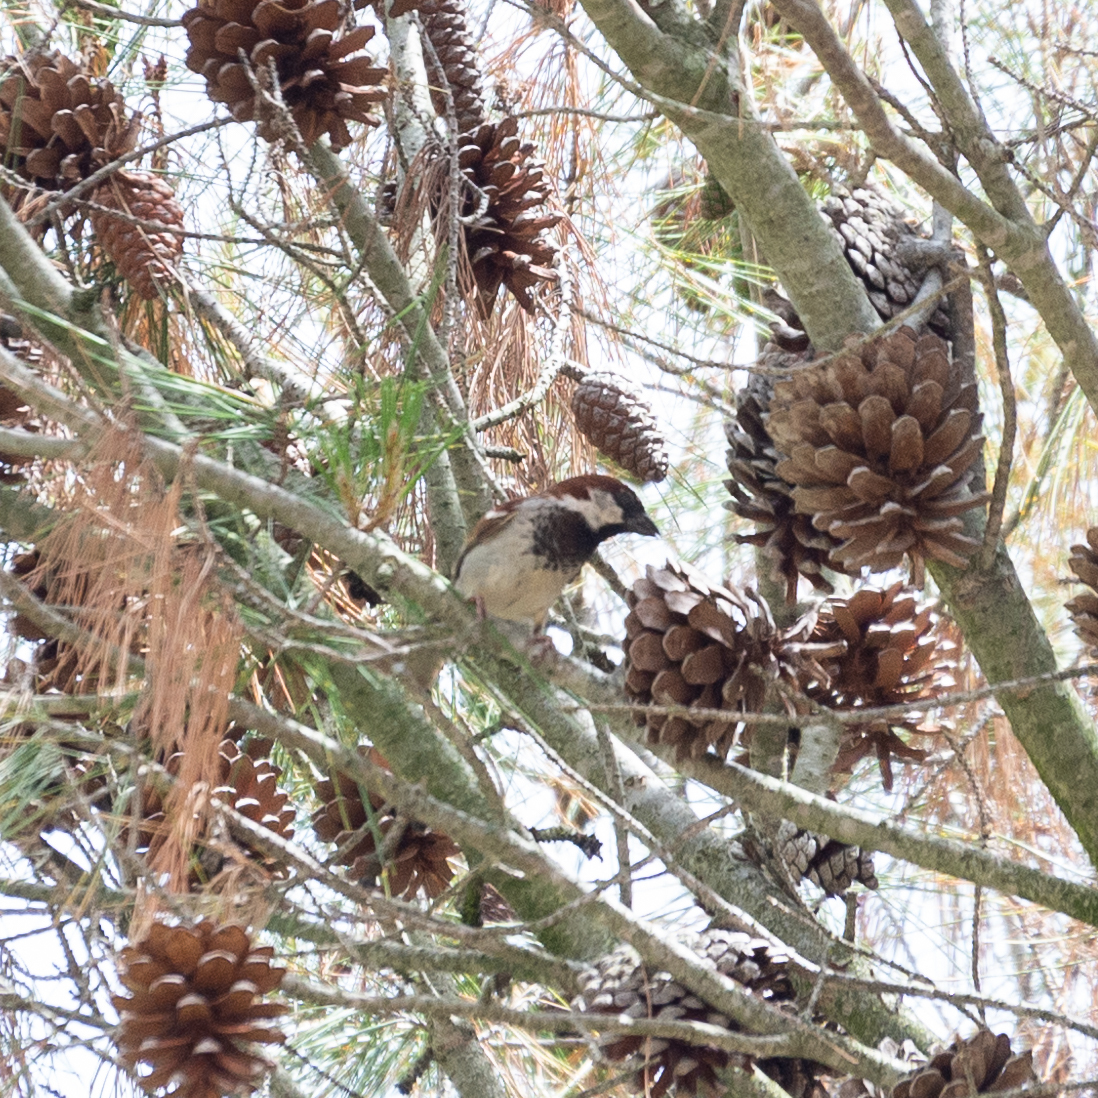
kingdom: Animalia
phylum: Chordata
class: Aves
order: Passeriformes
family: Passeridae
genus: Passer
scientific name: Passer domesticus
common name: House sparrow
